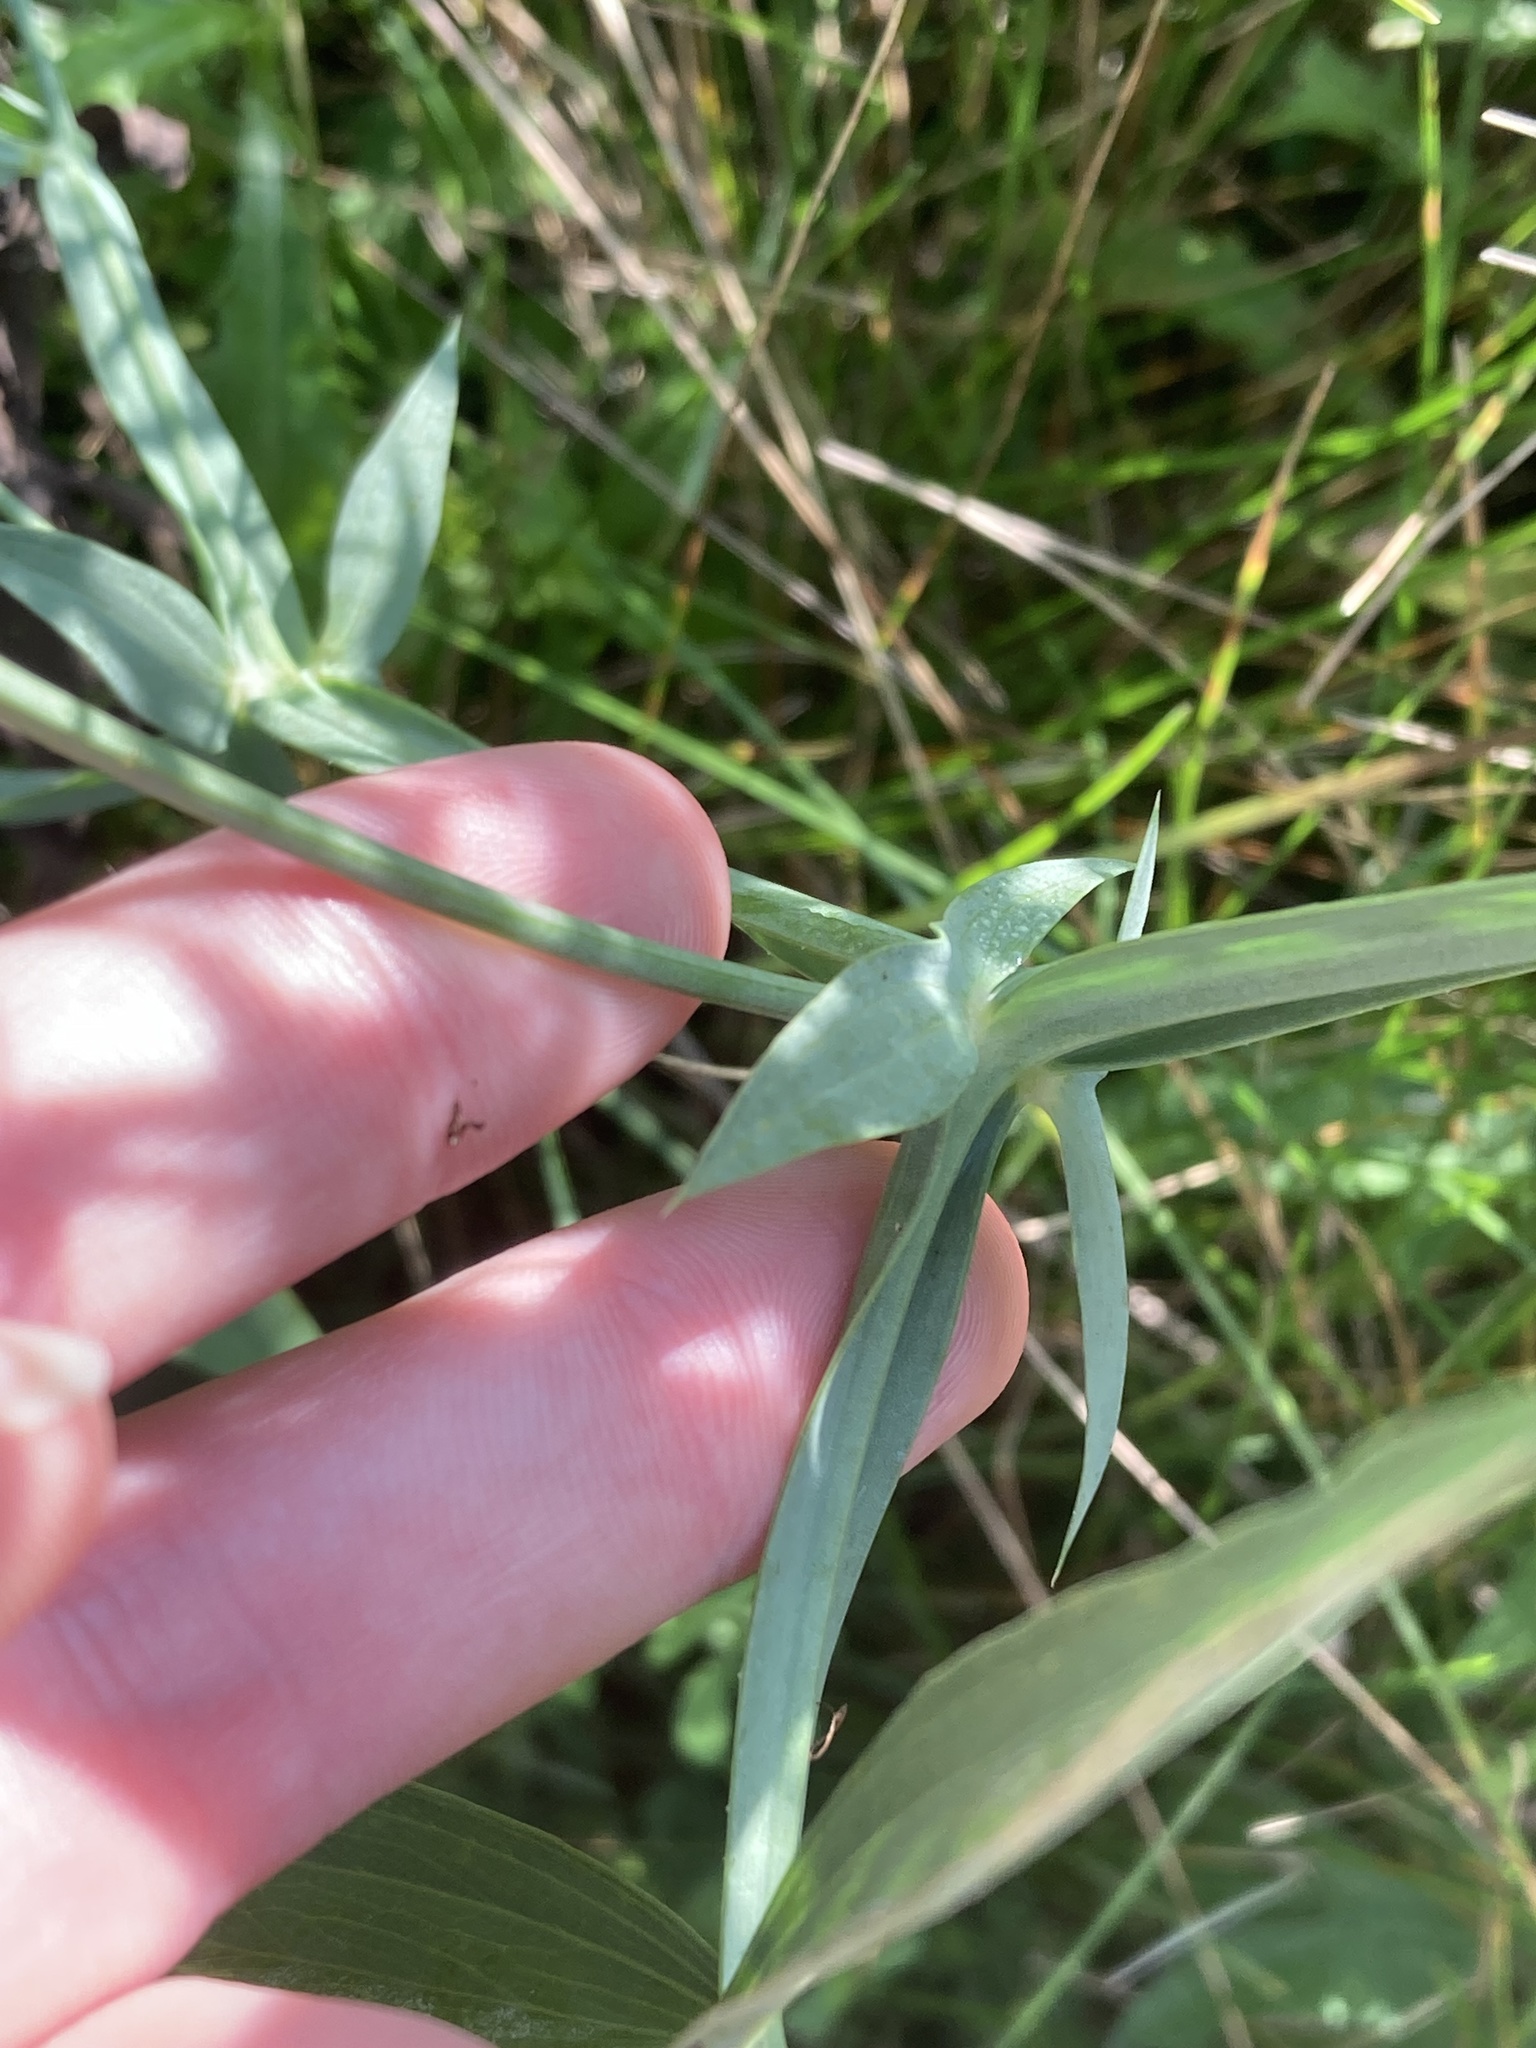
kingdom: Plantae
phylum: Tracheophyta
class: Magnoliopsida
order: Fabales
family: Fabaceae
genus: Lathyrus
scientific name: Lathyrus latifolius
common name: Perennial pea
